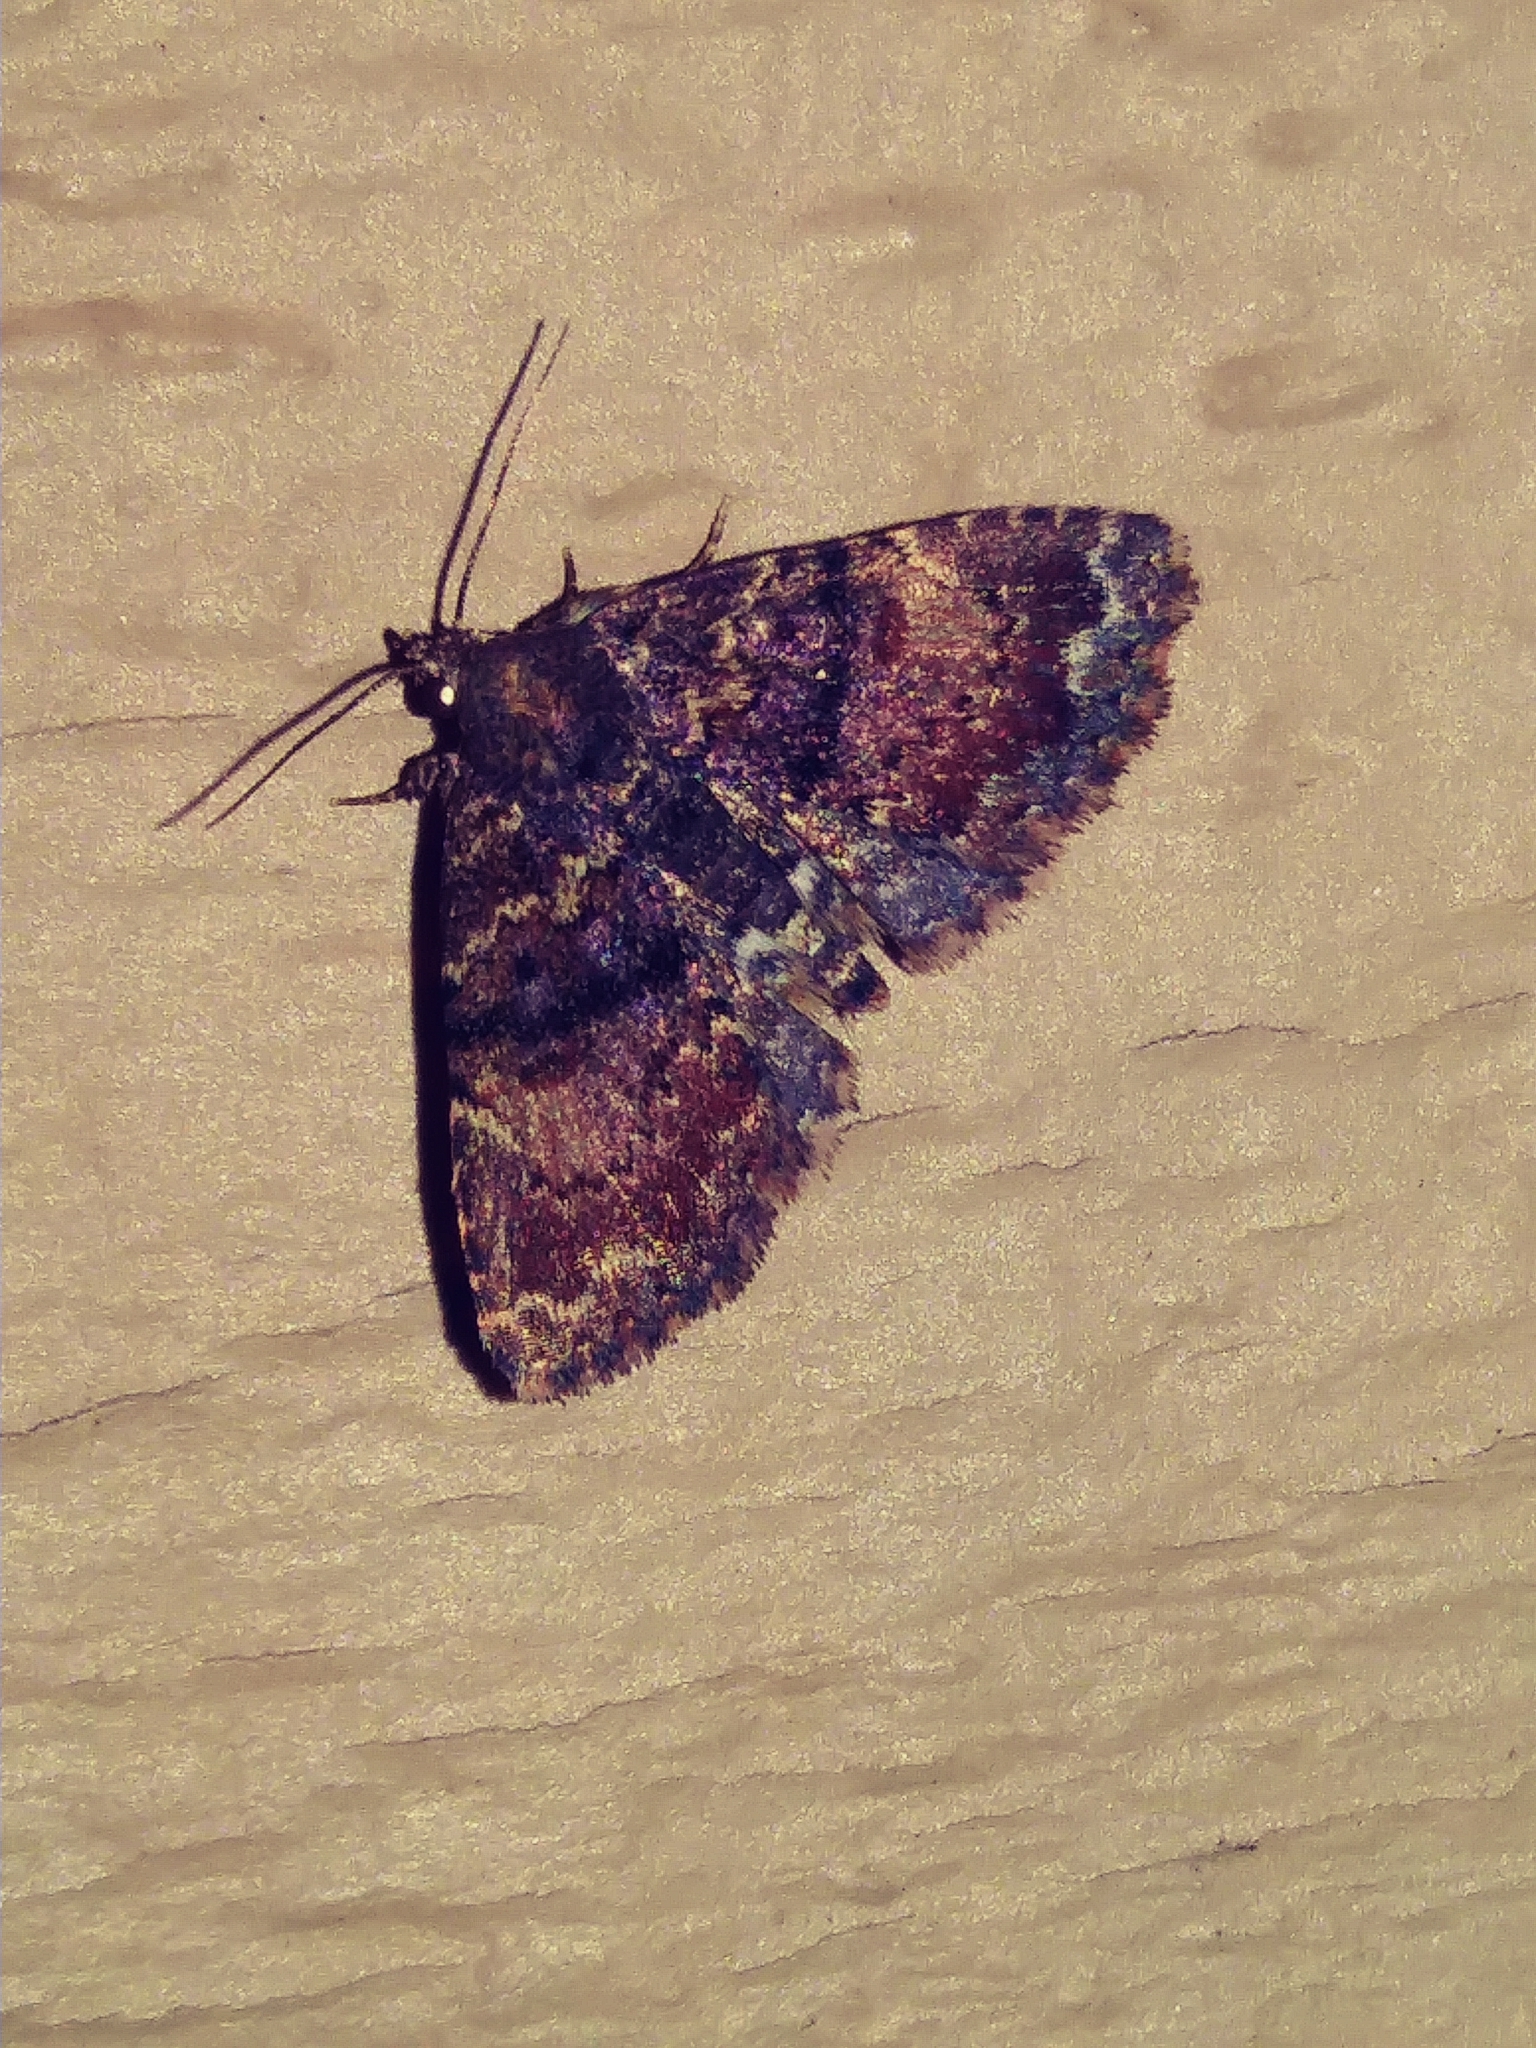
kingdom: Animalia
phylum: Arthropoda
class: Insecta
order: Lepidoptera
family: Erebidae
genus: Metalectra
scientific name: Metalectra richardsi
